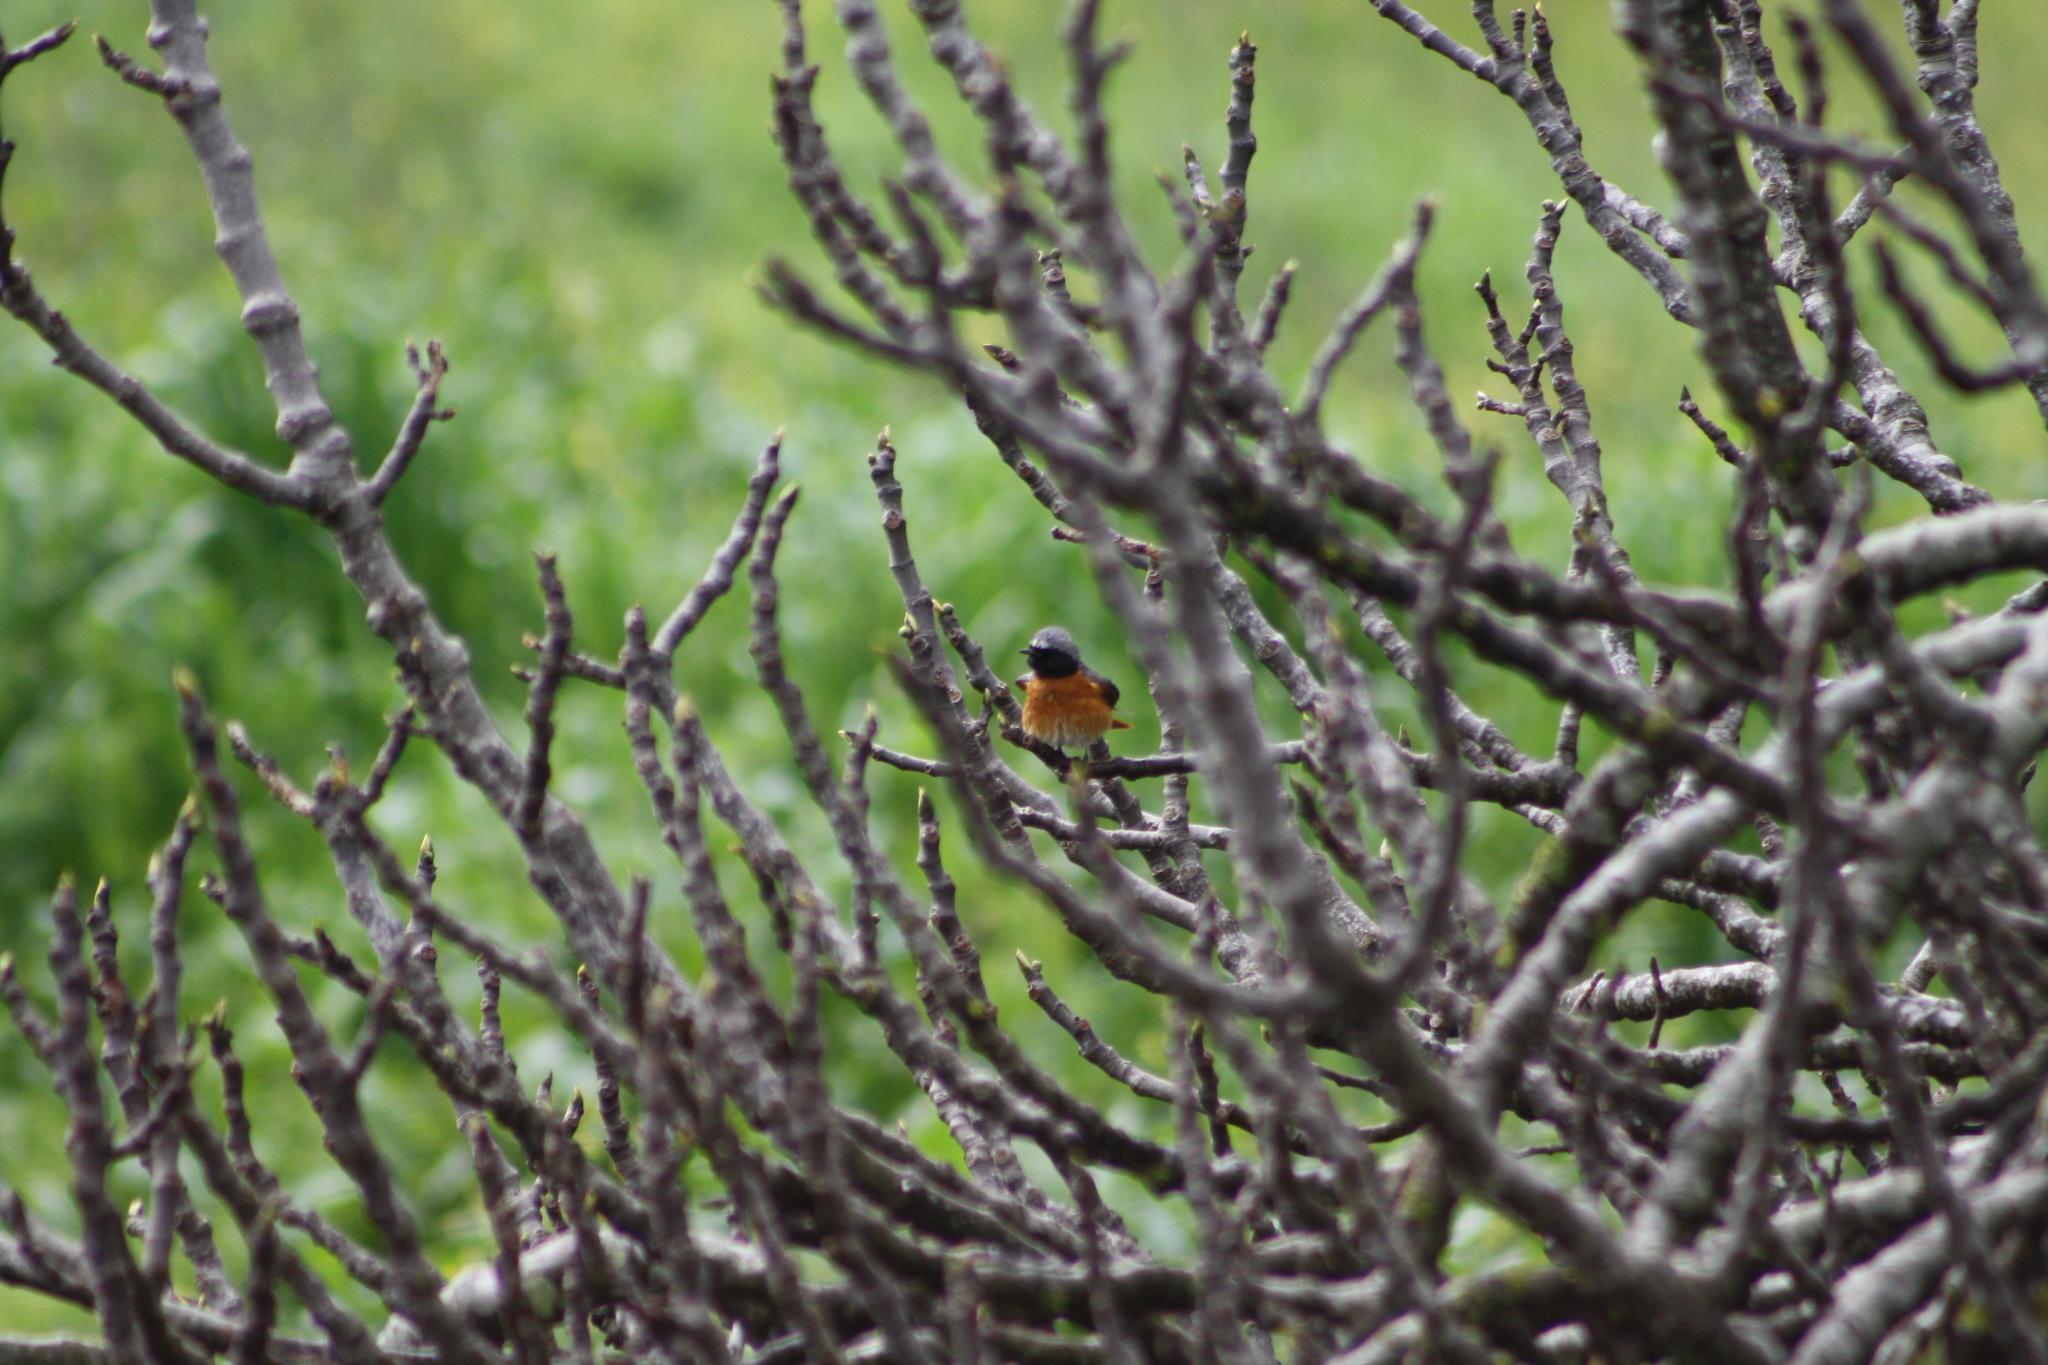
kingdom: Animalia
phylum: Chordata
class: Aves
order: Passeriformes
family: Muscicapidae
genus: Phoenicurus
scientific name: Phoenicurus phoenicurus
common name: Common redstart
